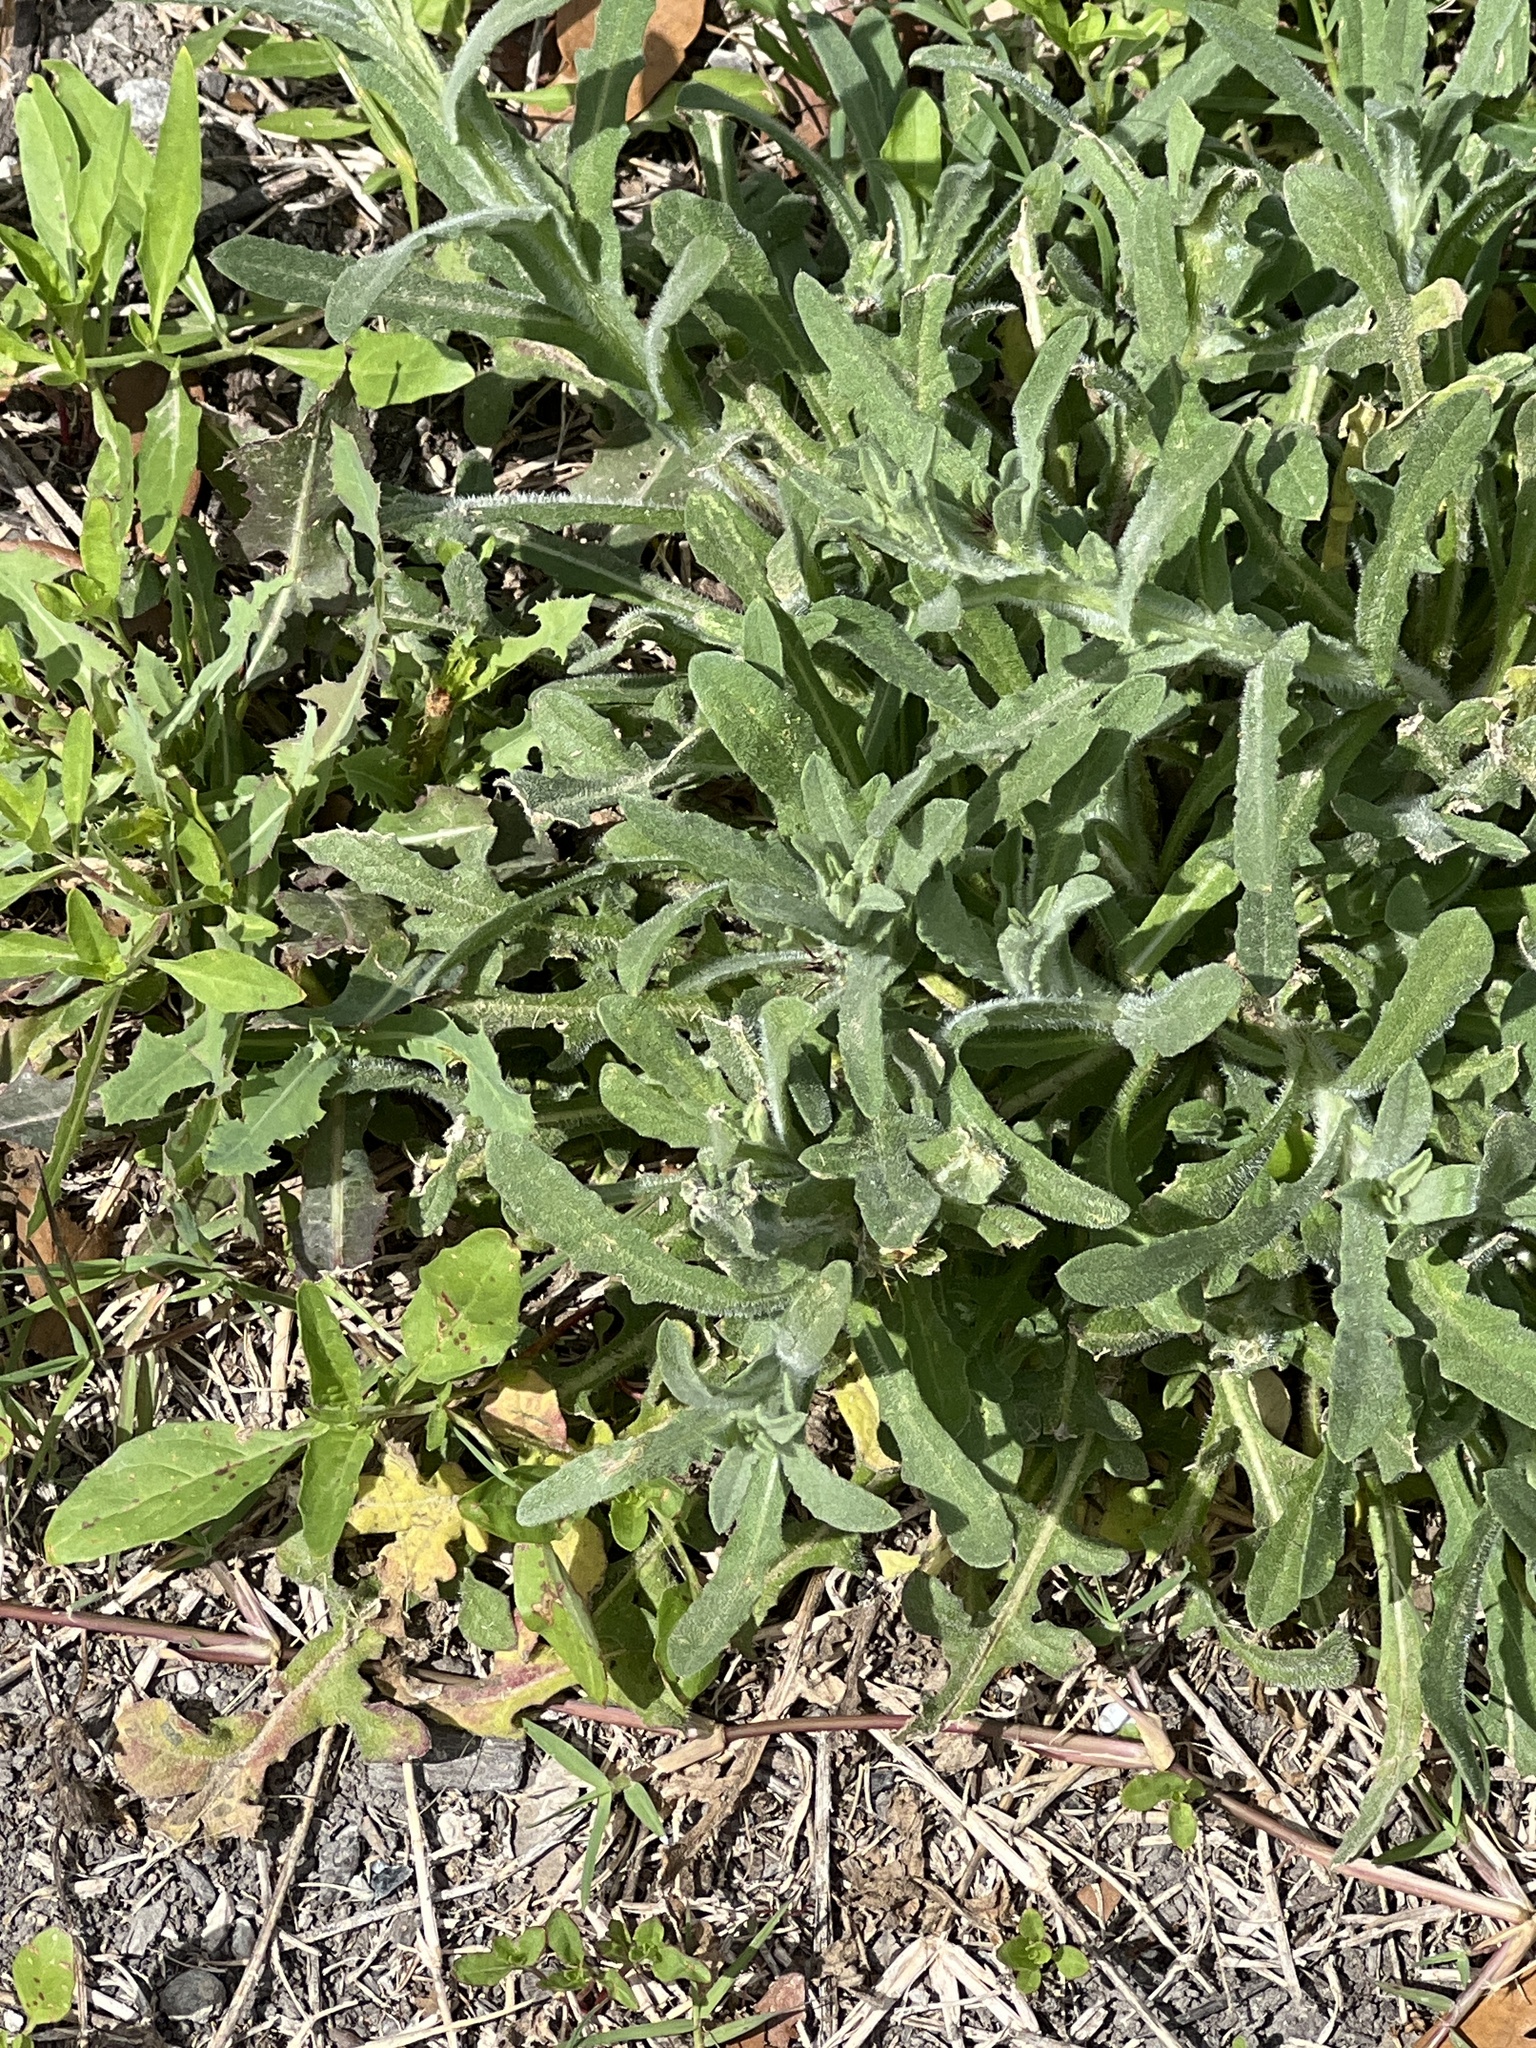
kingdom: Plantae
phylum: Tracheophyta
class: Magnoliopsida
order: Asterales
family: Asteraceae
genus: Centaurea
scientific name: Centaurea melitensis
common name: Maltese star-thistle
